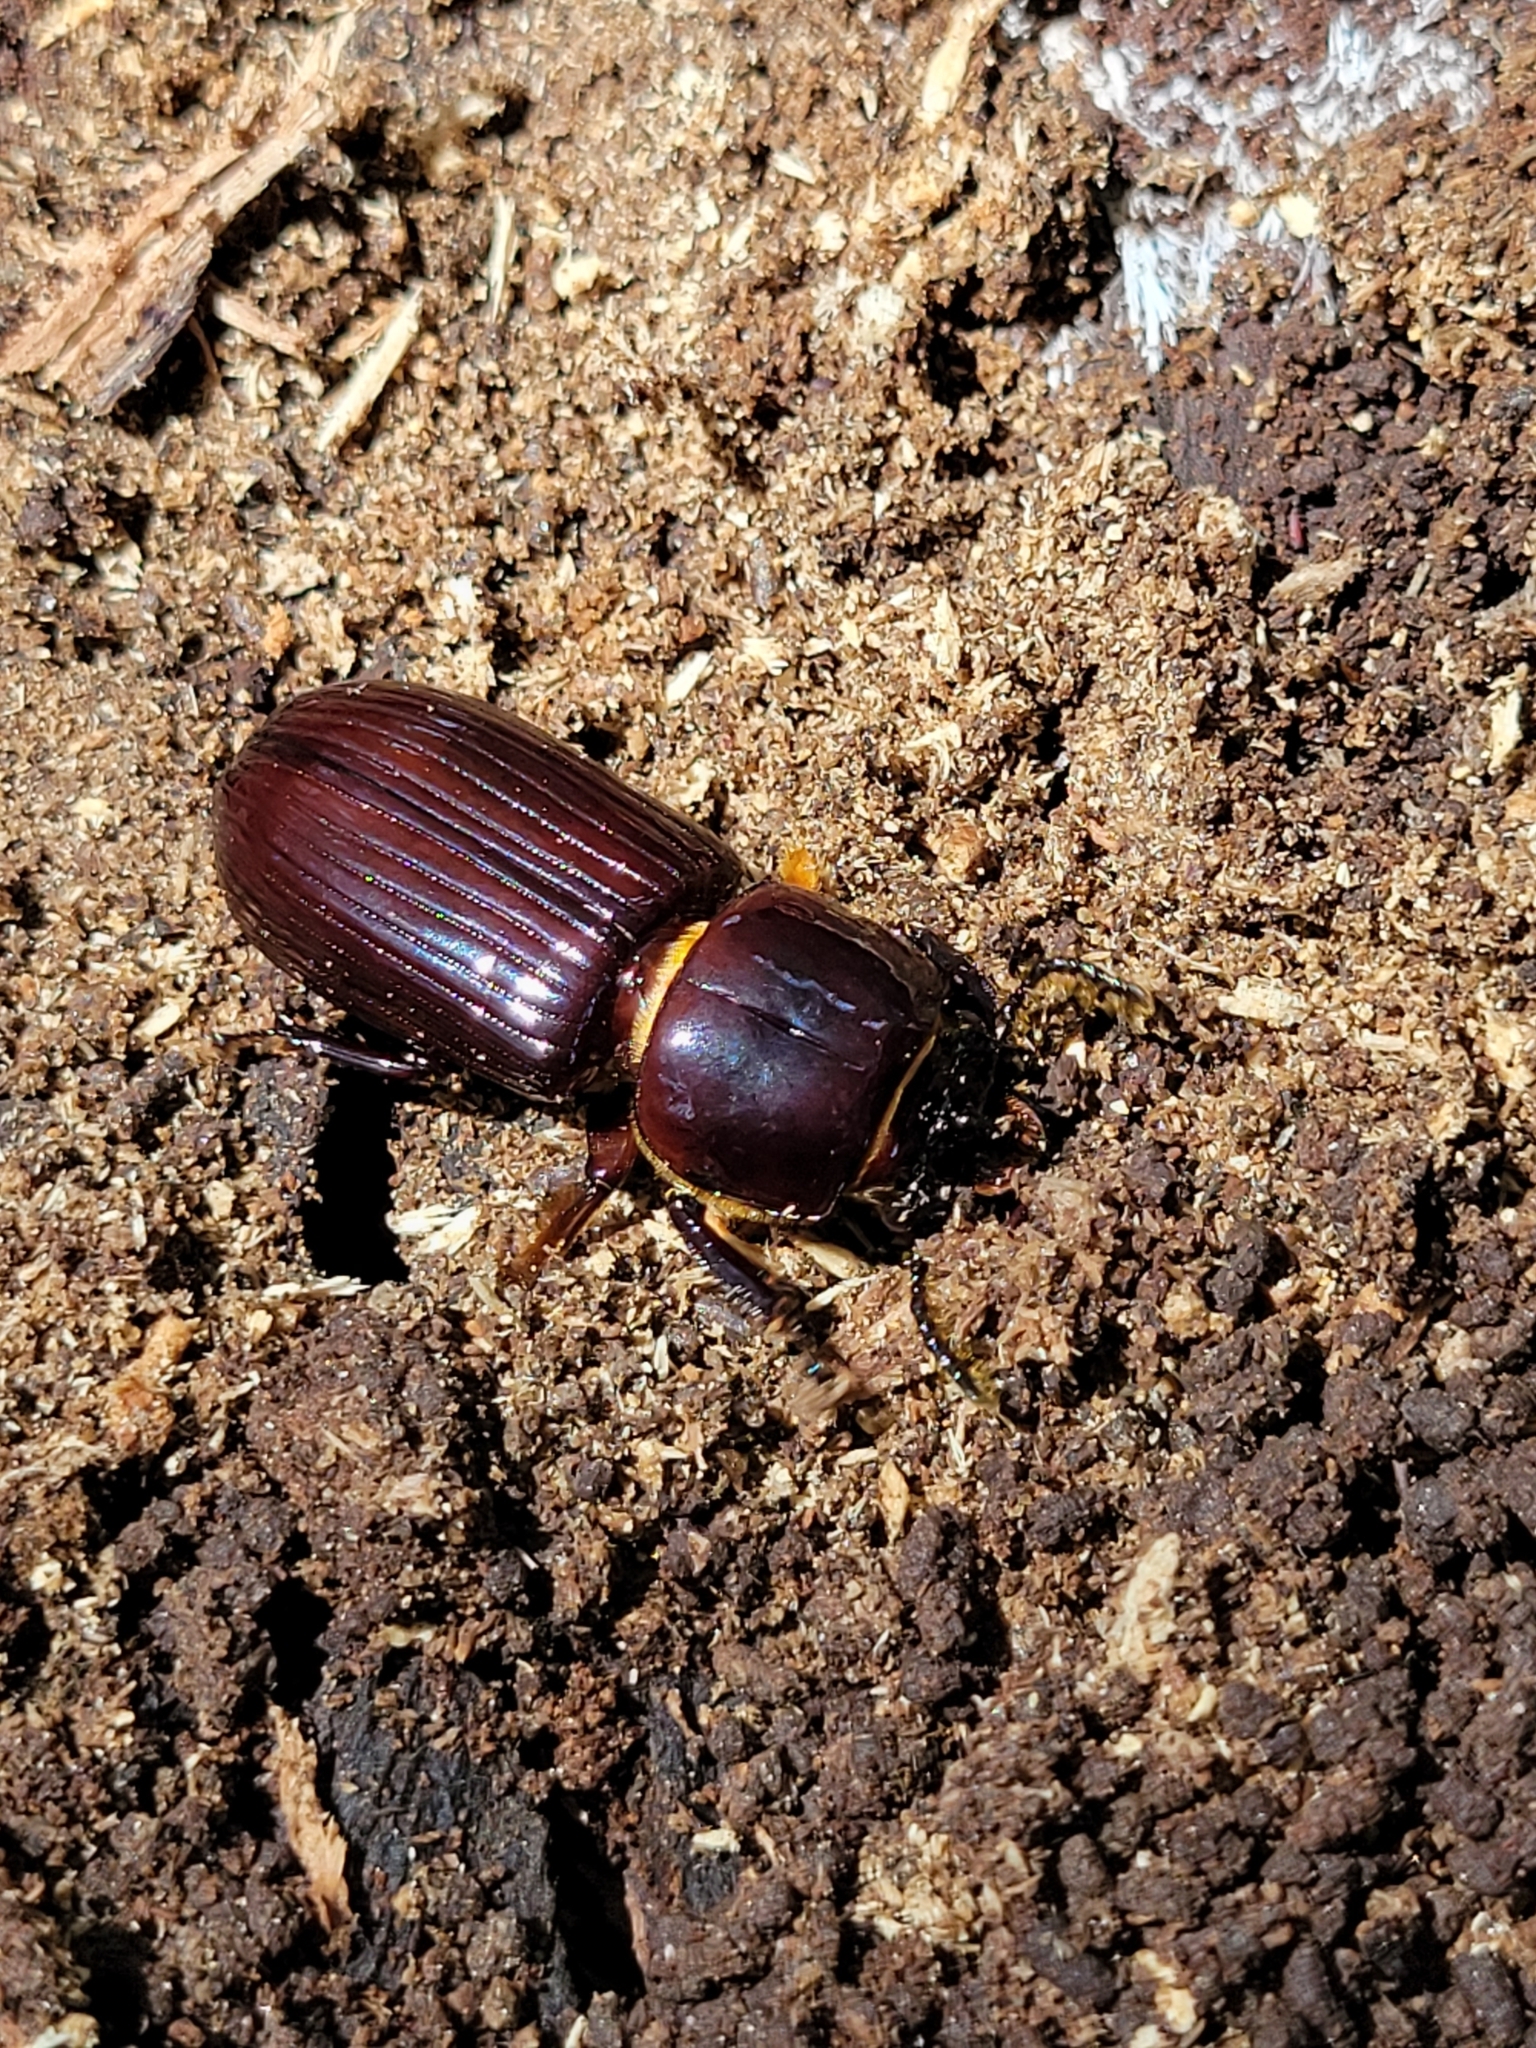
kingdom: Animalia
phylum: Arthropoda
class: Insecta
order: Coleoptera
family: Passalidae
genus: Odontotaenius
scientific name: Odontotaenius disjunctus
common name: Patent leather beetle
